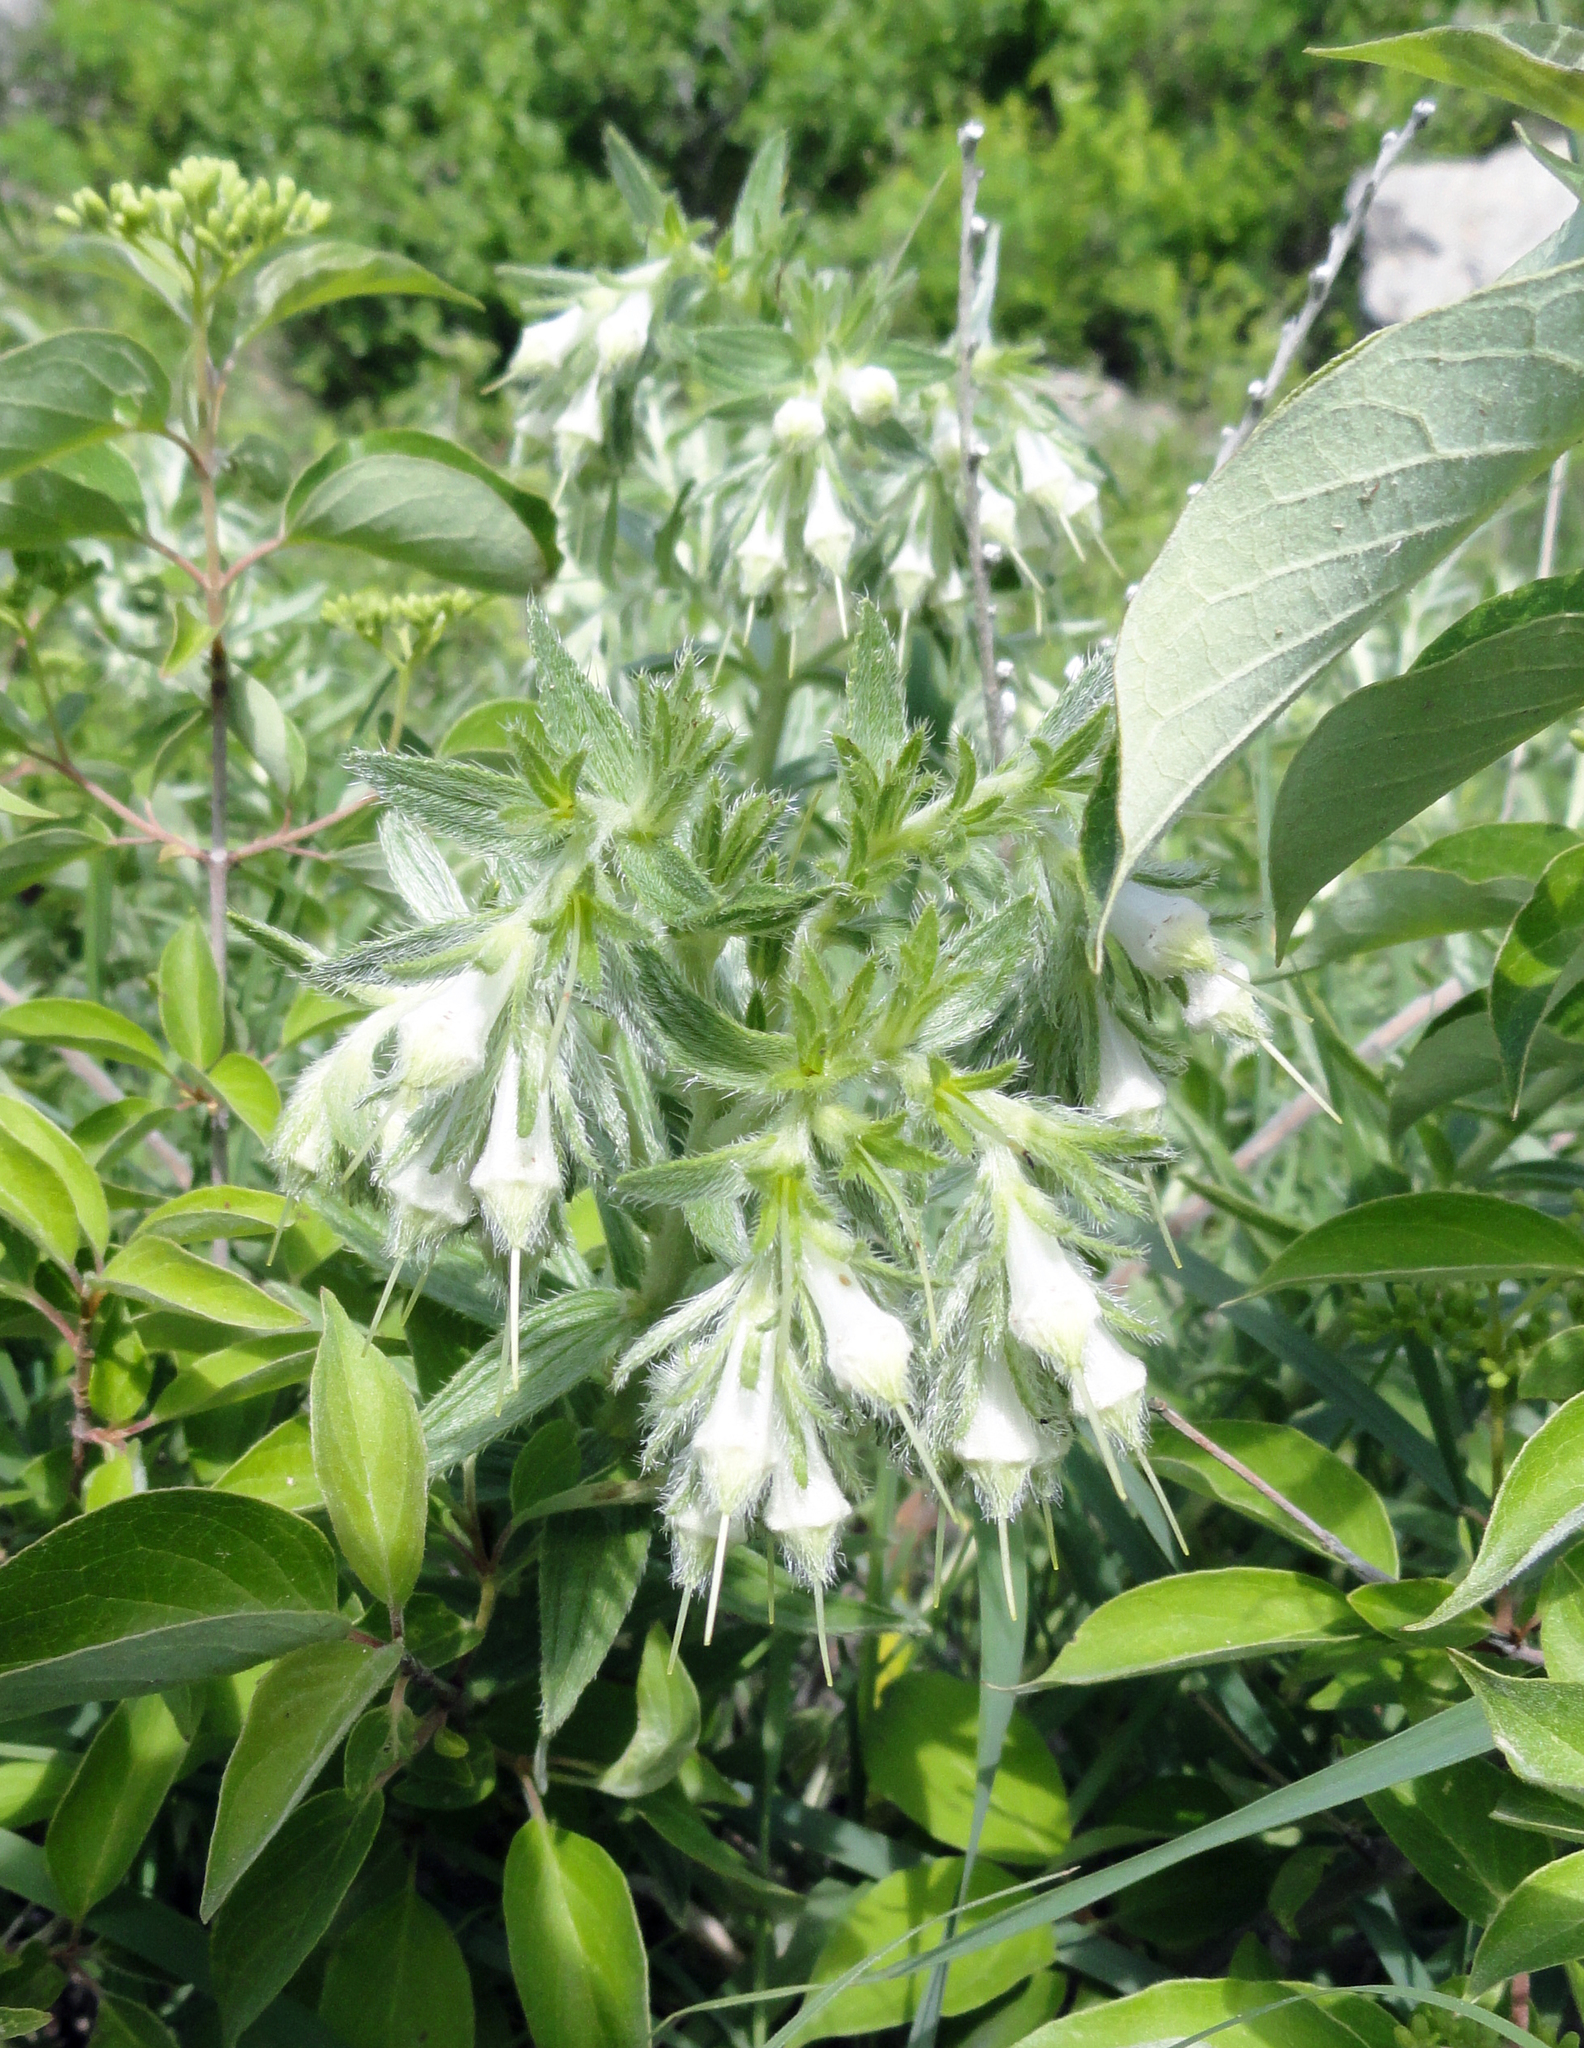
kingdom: Plantae
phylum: Tracheophyta
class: Magnoliopsida
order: Boraginales
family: Boraginaceae
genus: Lithospermum
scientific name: Lithospermum occidentale
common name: Western false gromwell
